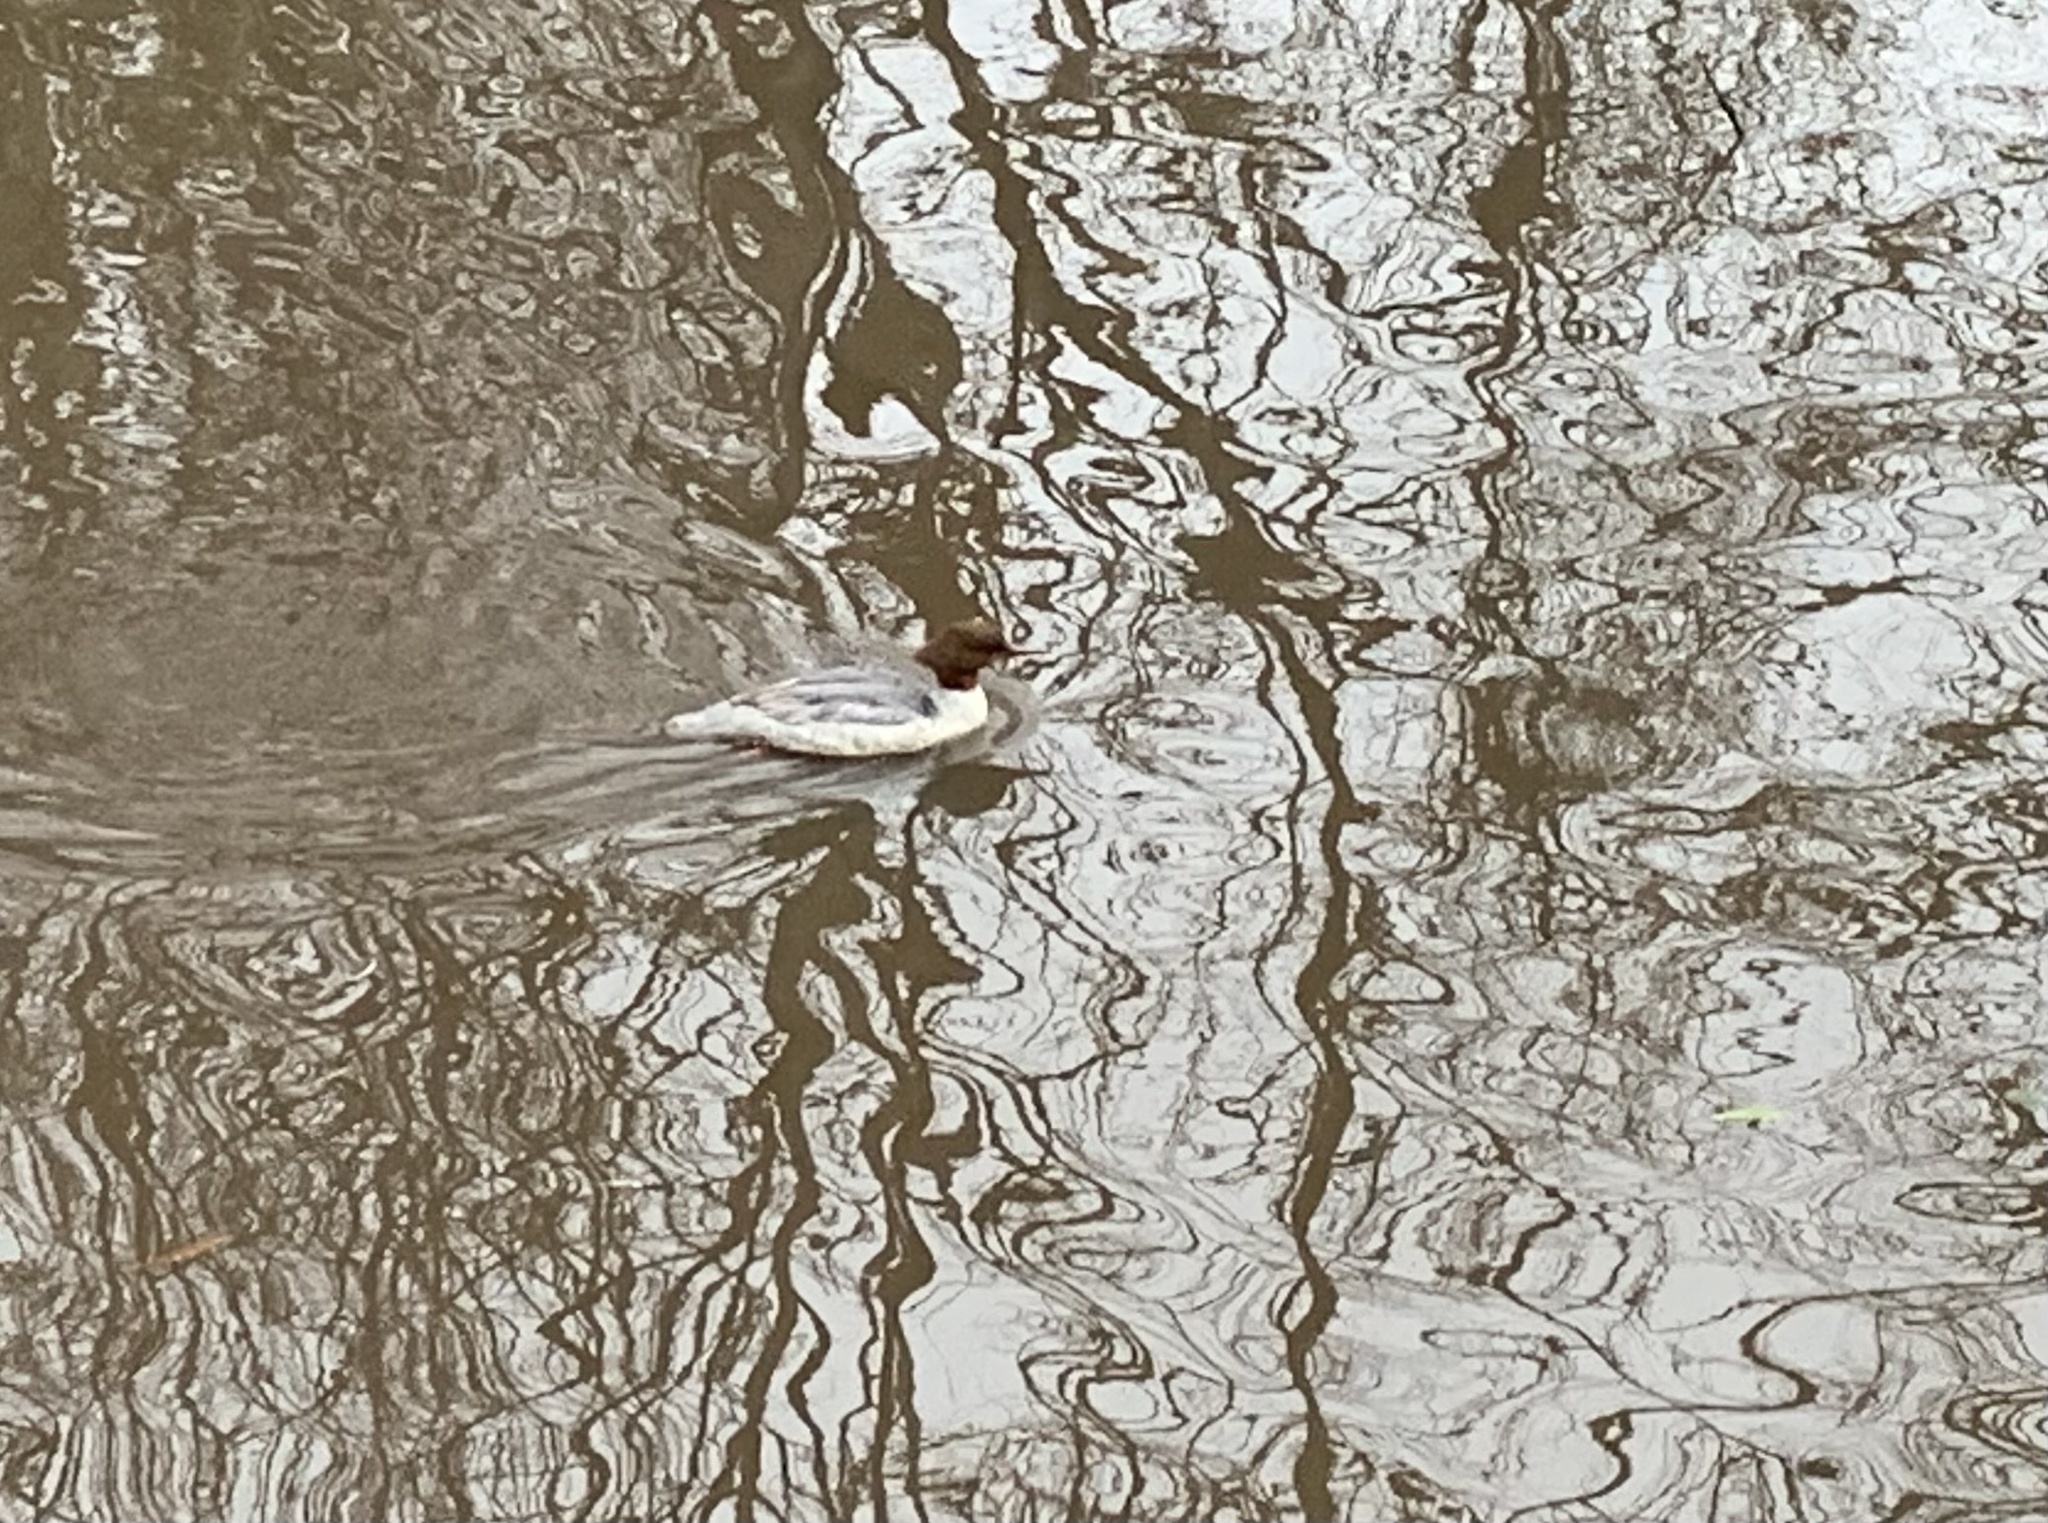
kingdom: Animalia
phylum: Chordata
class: Aves
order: Anseriformes
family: Anatidae
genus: Mergus
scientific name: Mergus merganser
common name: Common merganser
